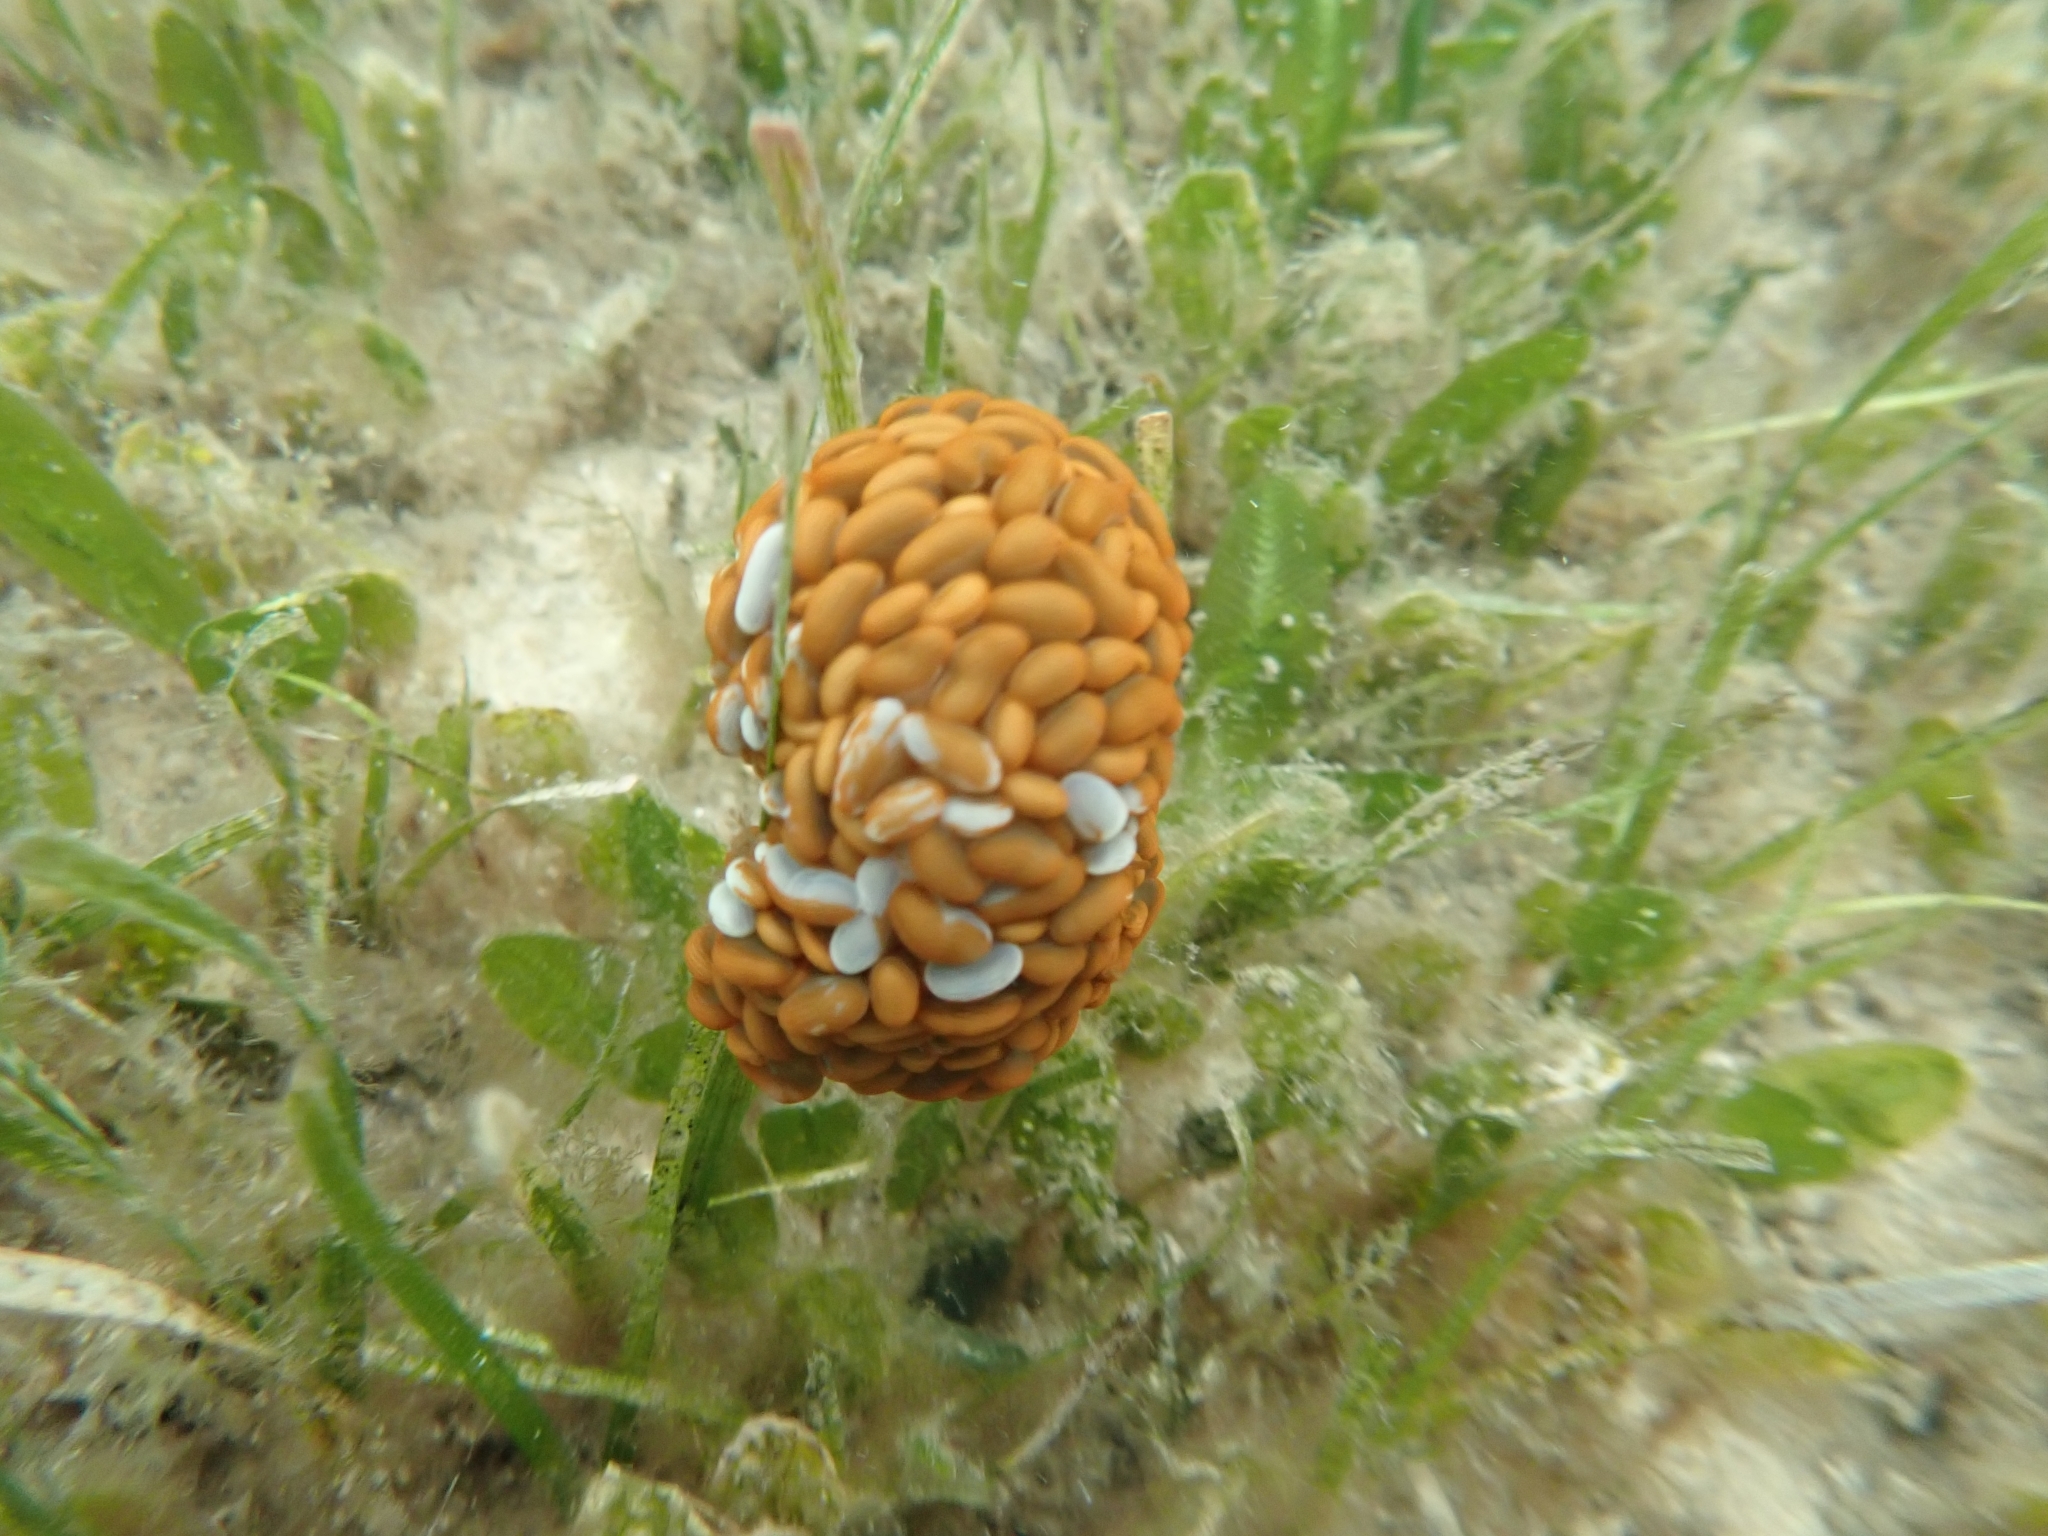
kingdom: Animalia
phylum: Cnidaria
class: Anthozoa
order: Actiniaria
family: Actiniidae
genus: Phlyctenactis
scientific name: Phlyctenactis tuberculosa
